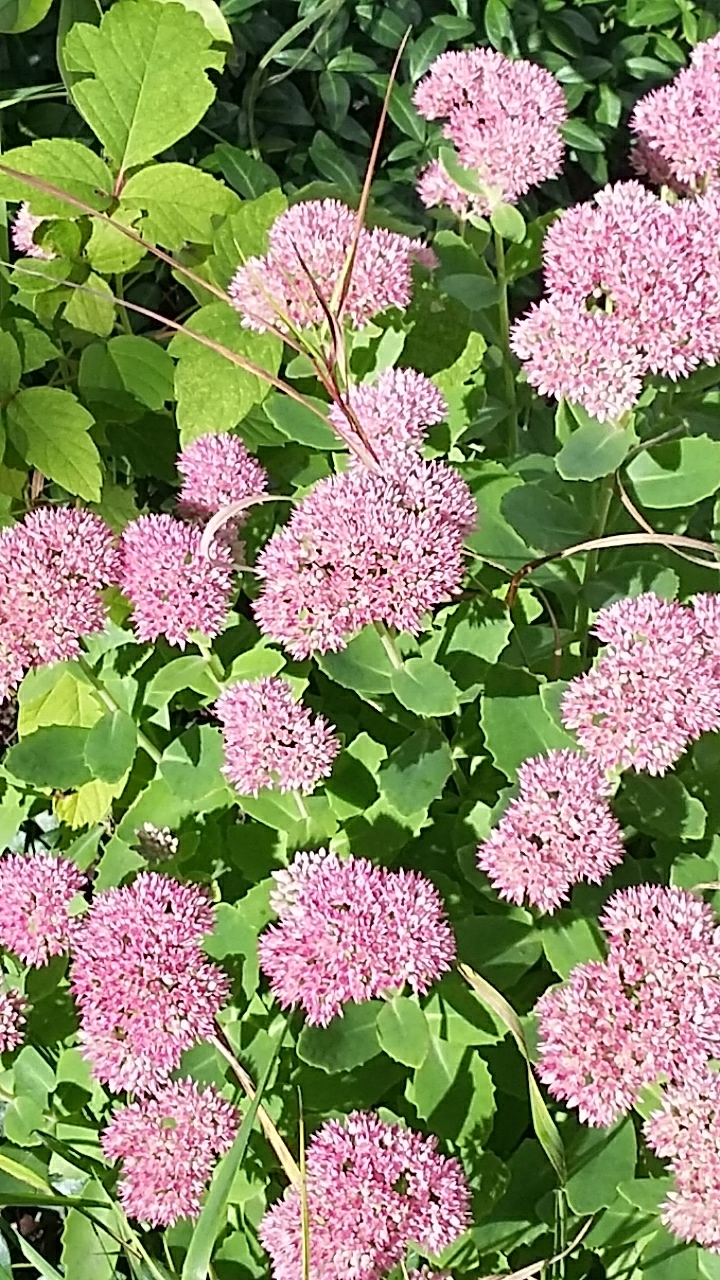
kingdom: Animalia
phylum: Arthropoda
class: Insecta
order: Hymenoptera
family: Apidae
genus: Bombus
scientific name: Bombus impatiens
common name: Common eastern bumble bee
